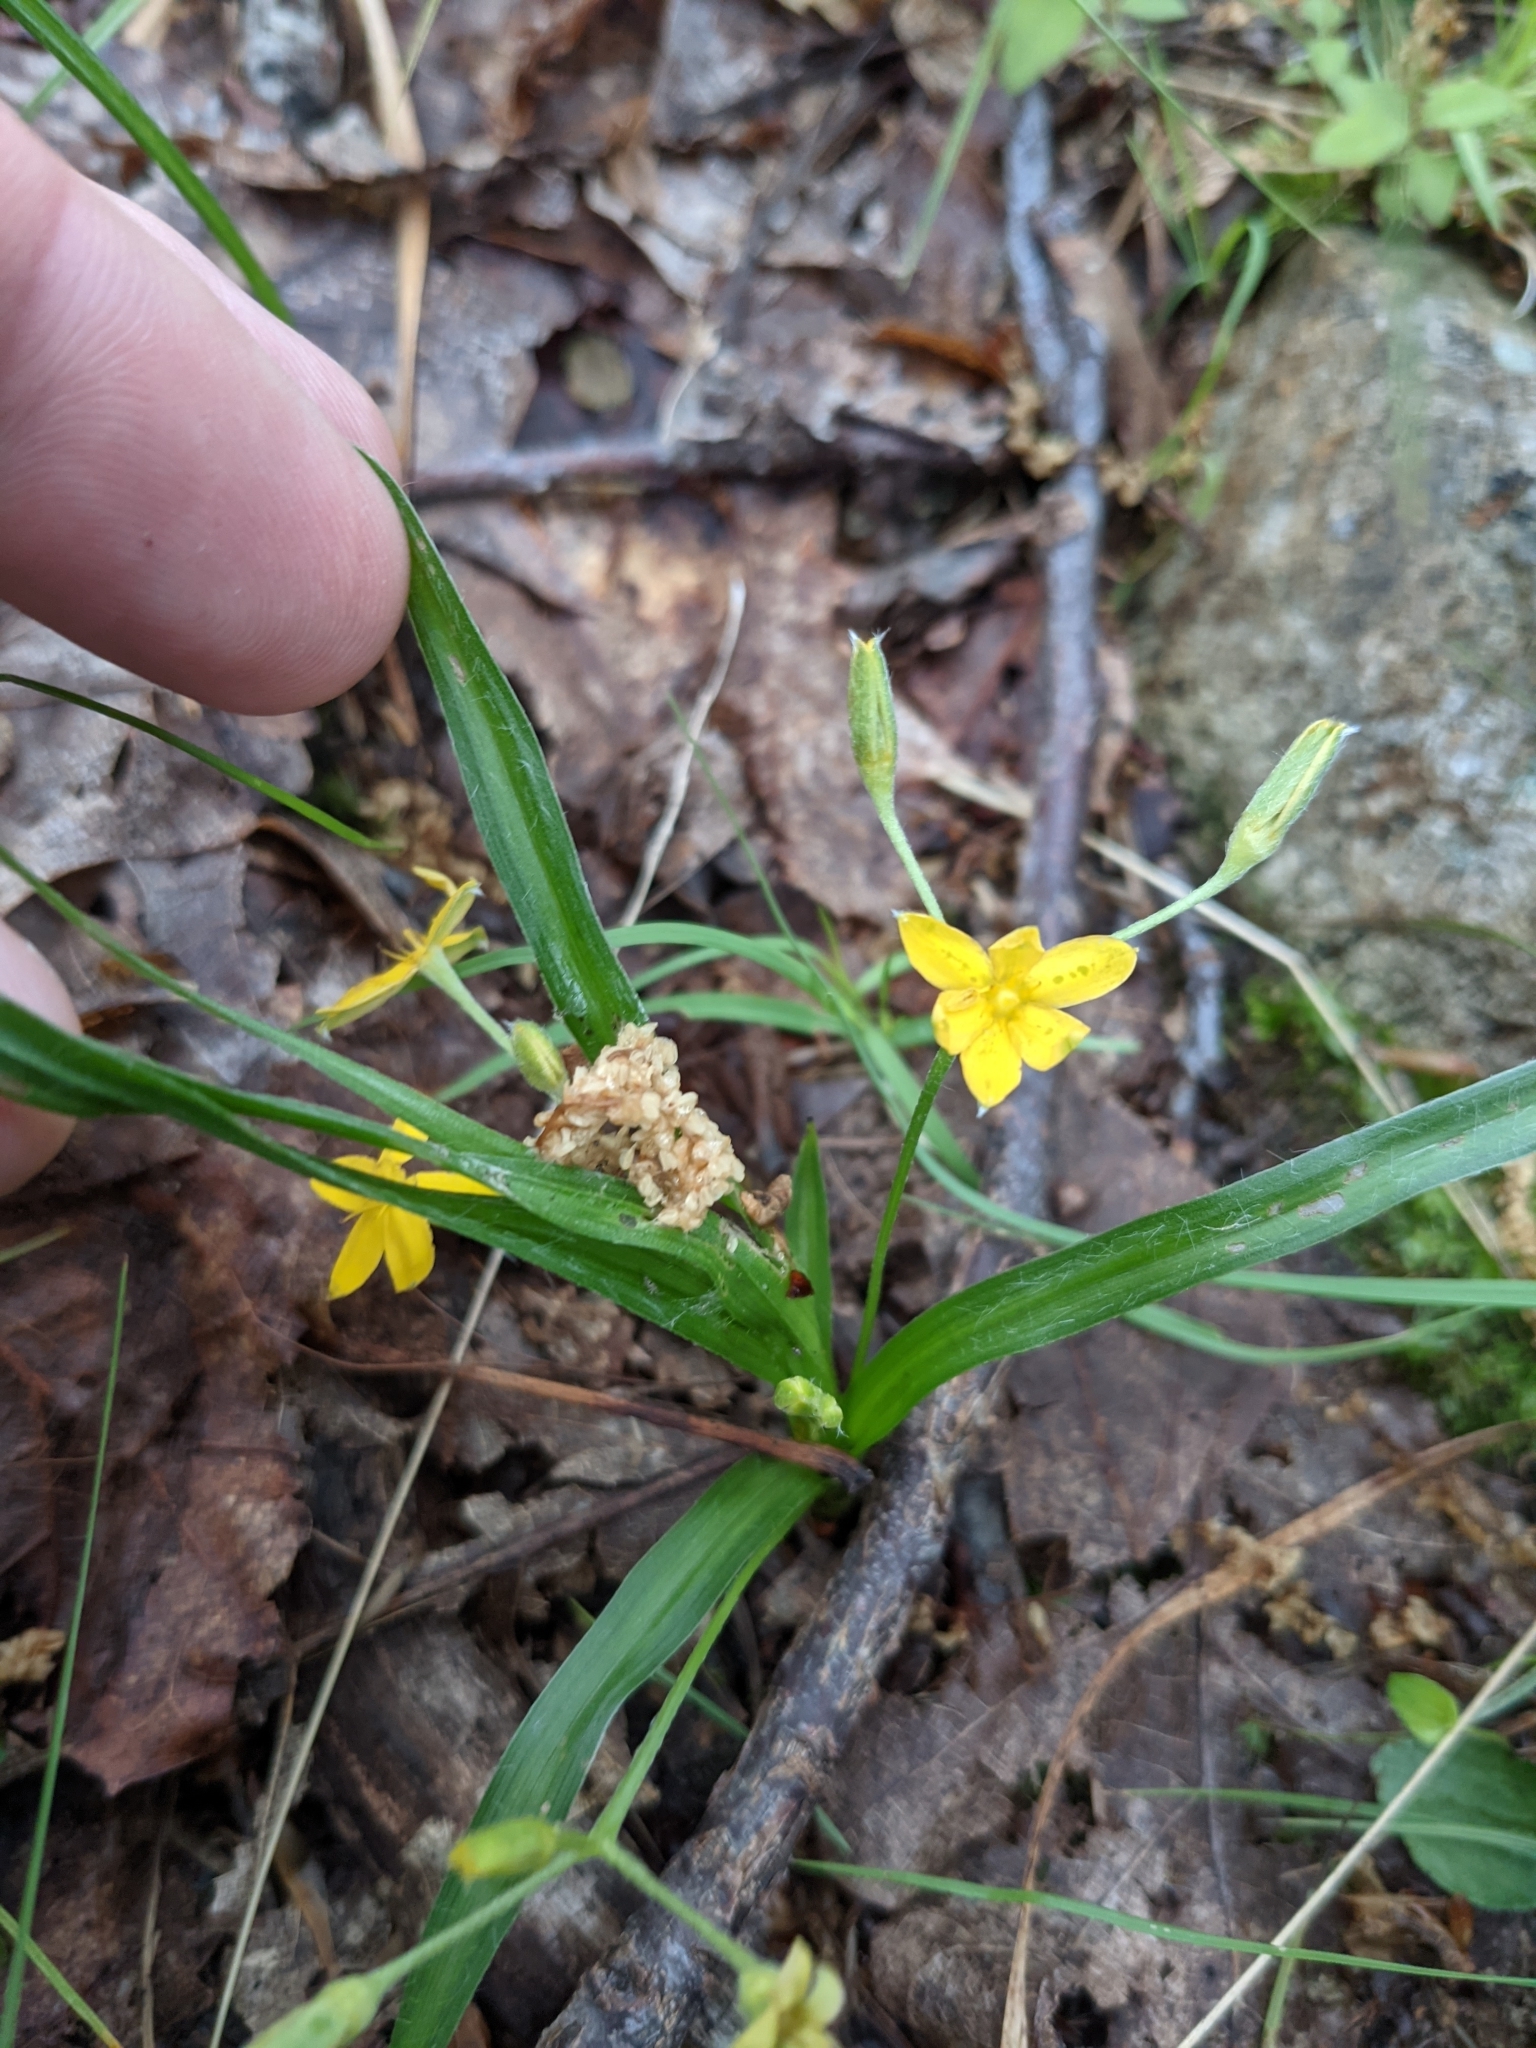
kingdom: Plantae
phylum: Tracheophyta
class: Liliopsida
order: Asparagales
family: Hypoxidaceae
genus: Hypoxis
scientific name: Hypoxis hirsuta
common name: Common goldstar
